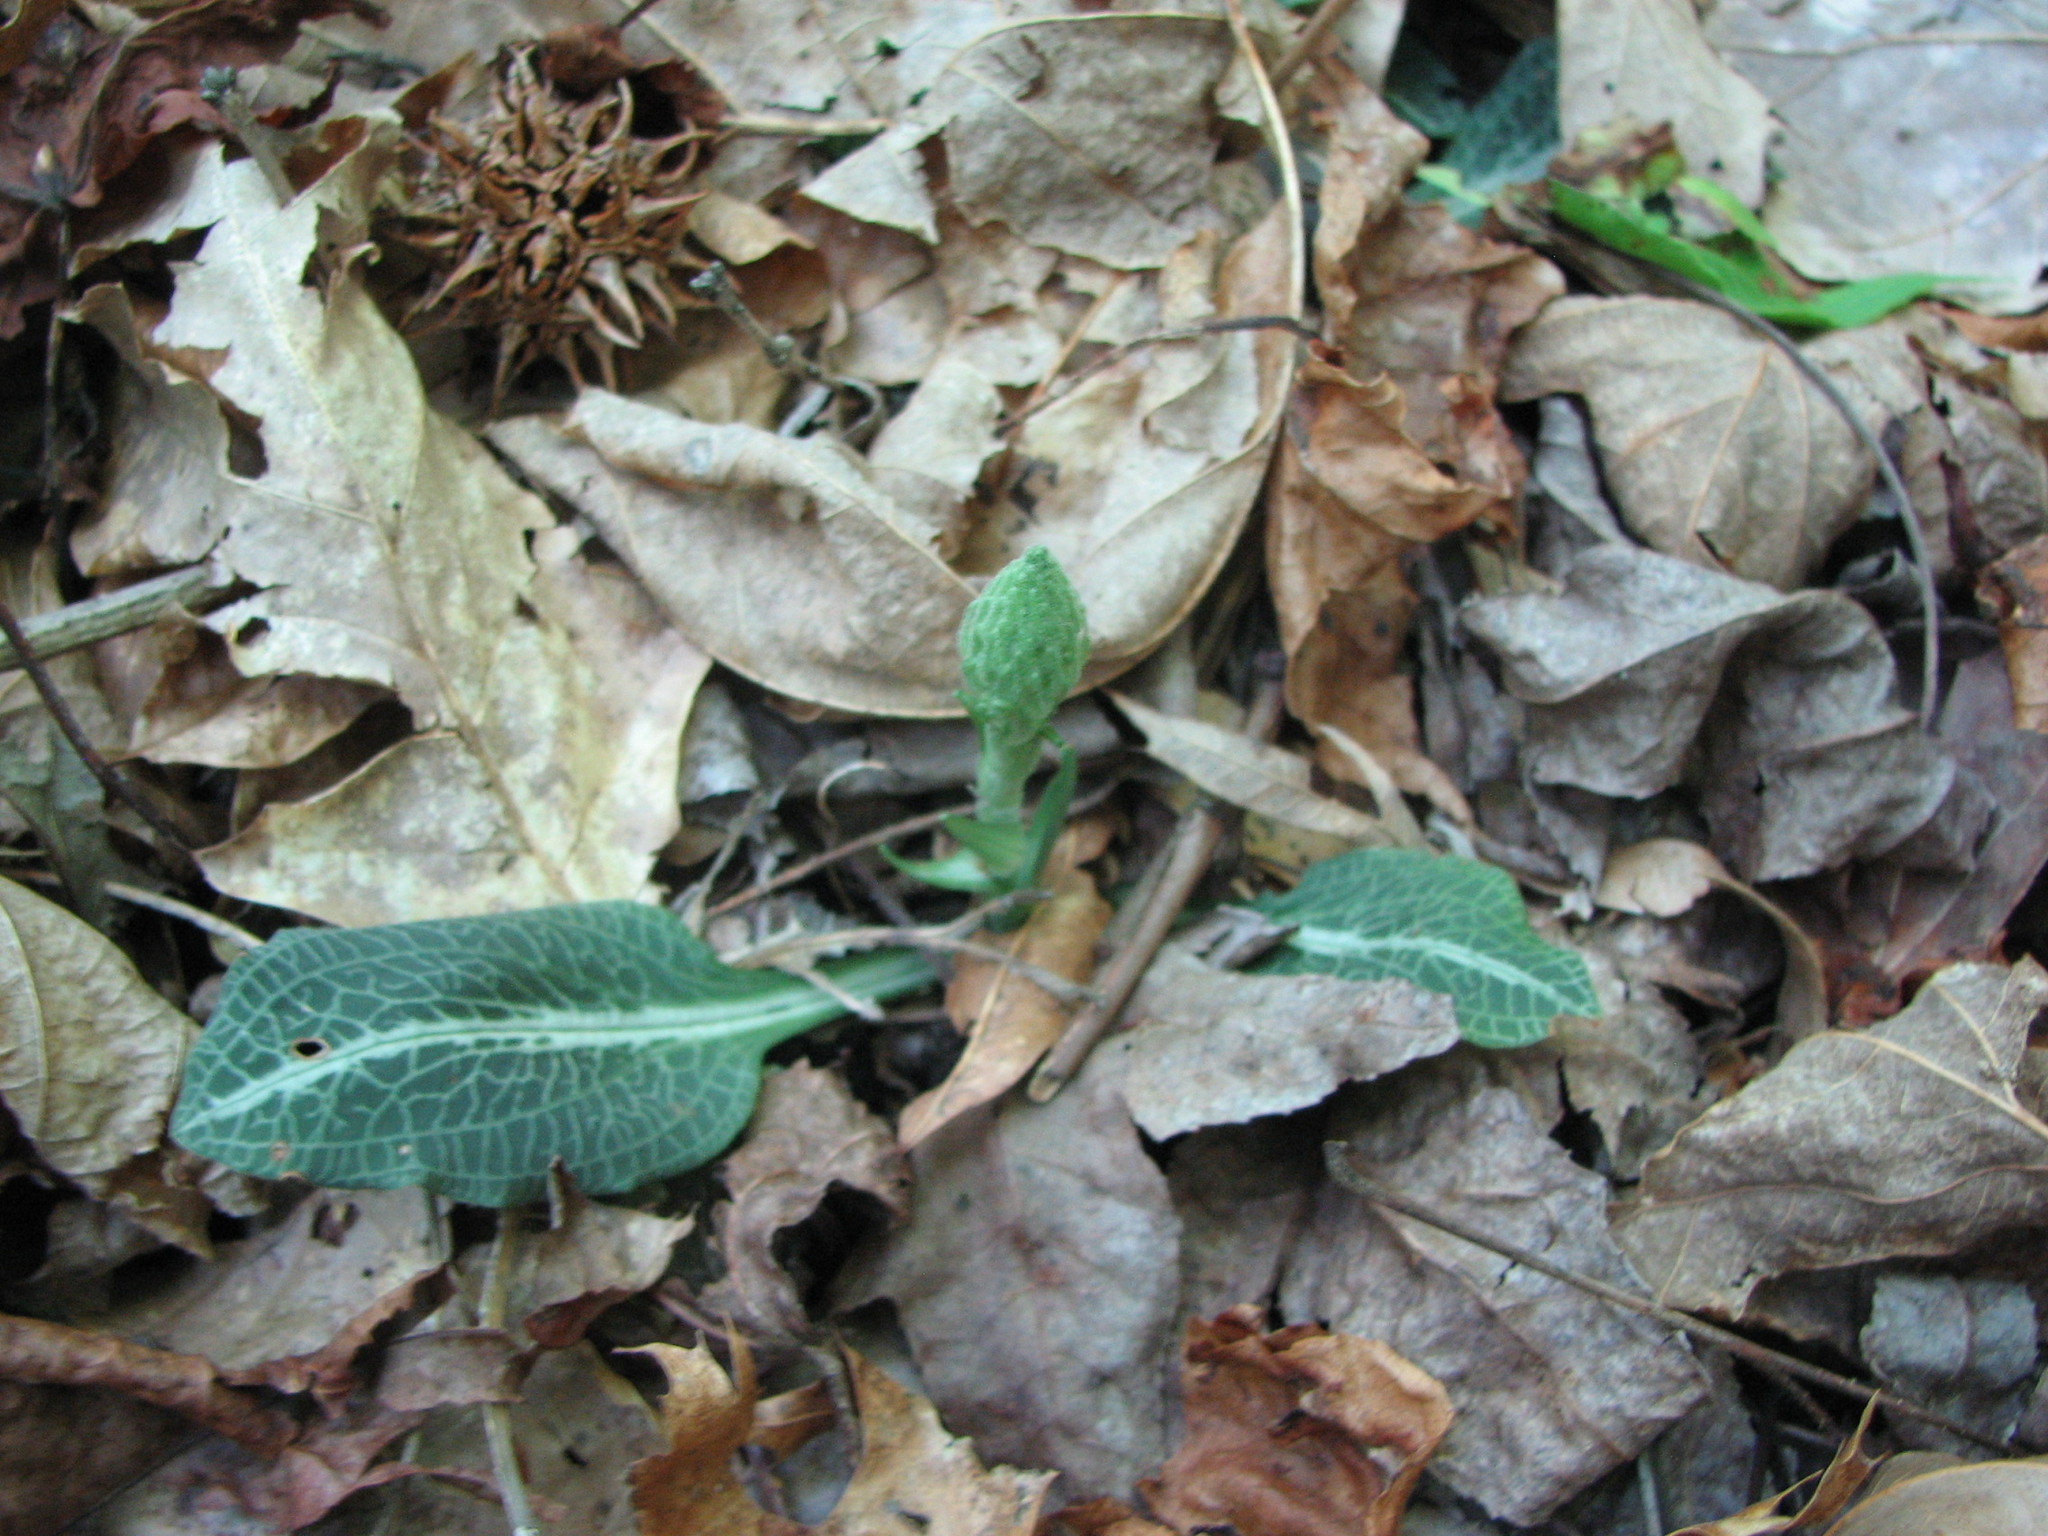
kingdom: Plantae
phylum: Tracheophyta
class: Liliopsida
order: Asparagales
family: Orchidaceae
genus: Goodyera
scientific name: Goodyera pubescens
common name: Downy rattlesnake-plantain
